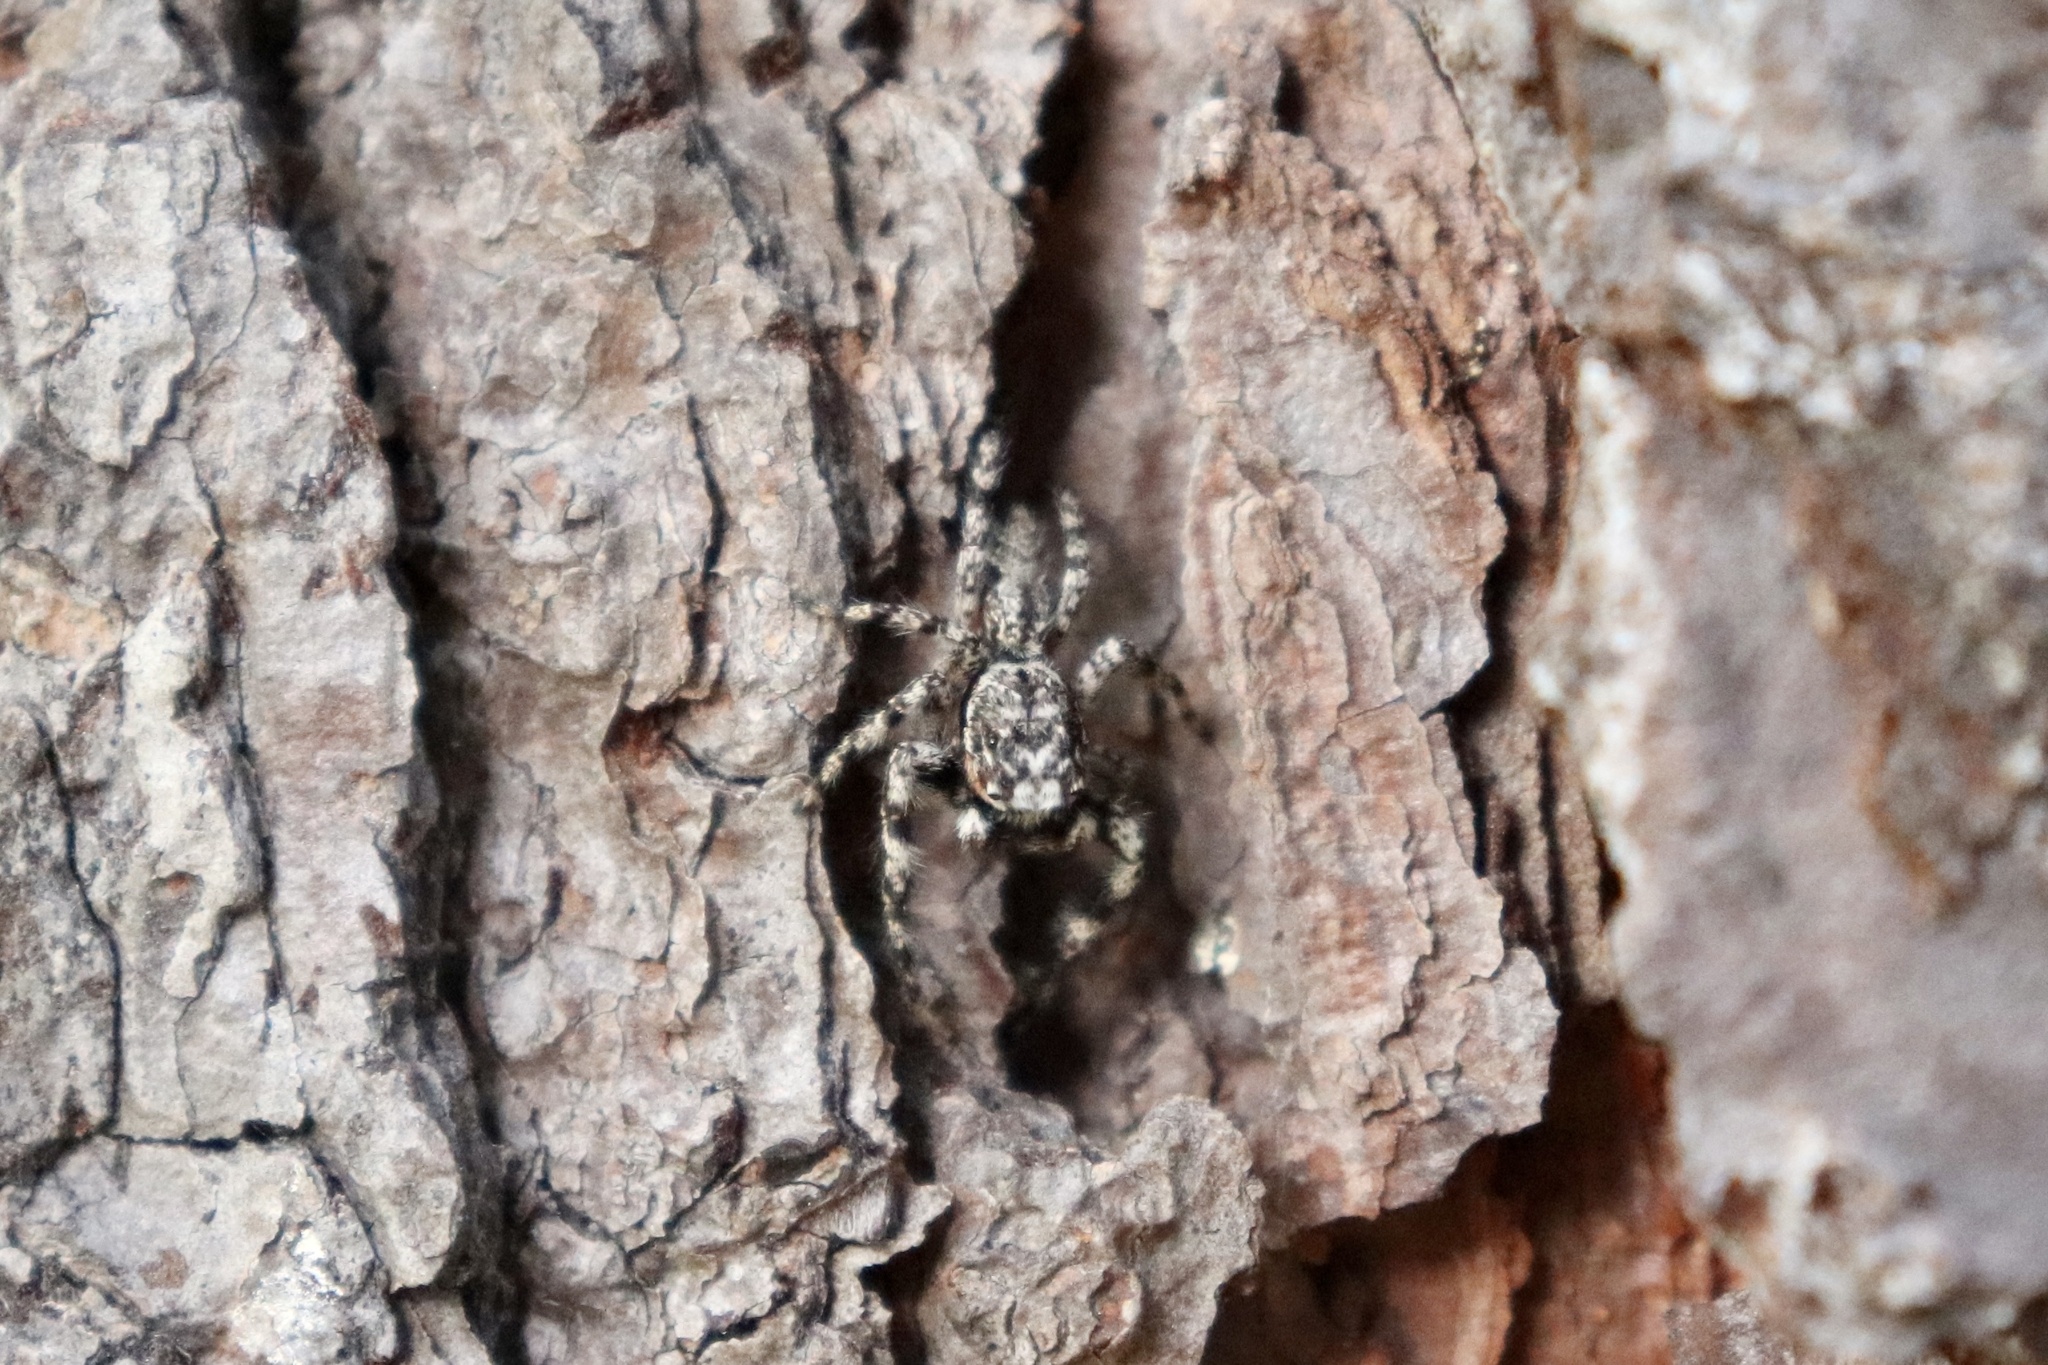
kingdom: Animalia
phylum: Arthropoda
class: Arachnida
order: Araneae
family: Salticidae
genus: Platycryptus
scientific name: Platycryptus undatus
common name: Tan jumping spider
